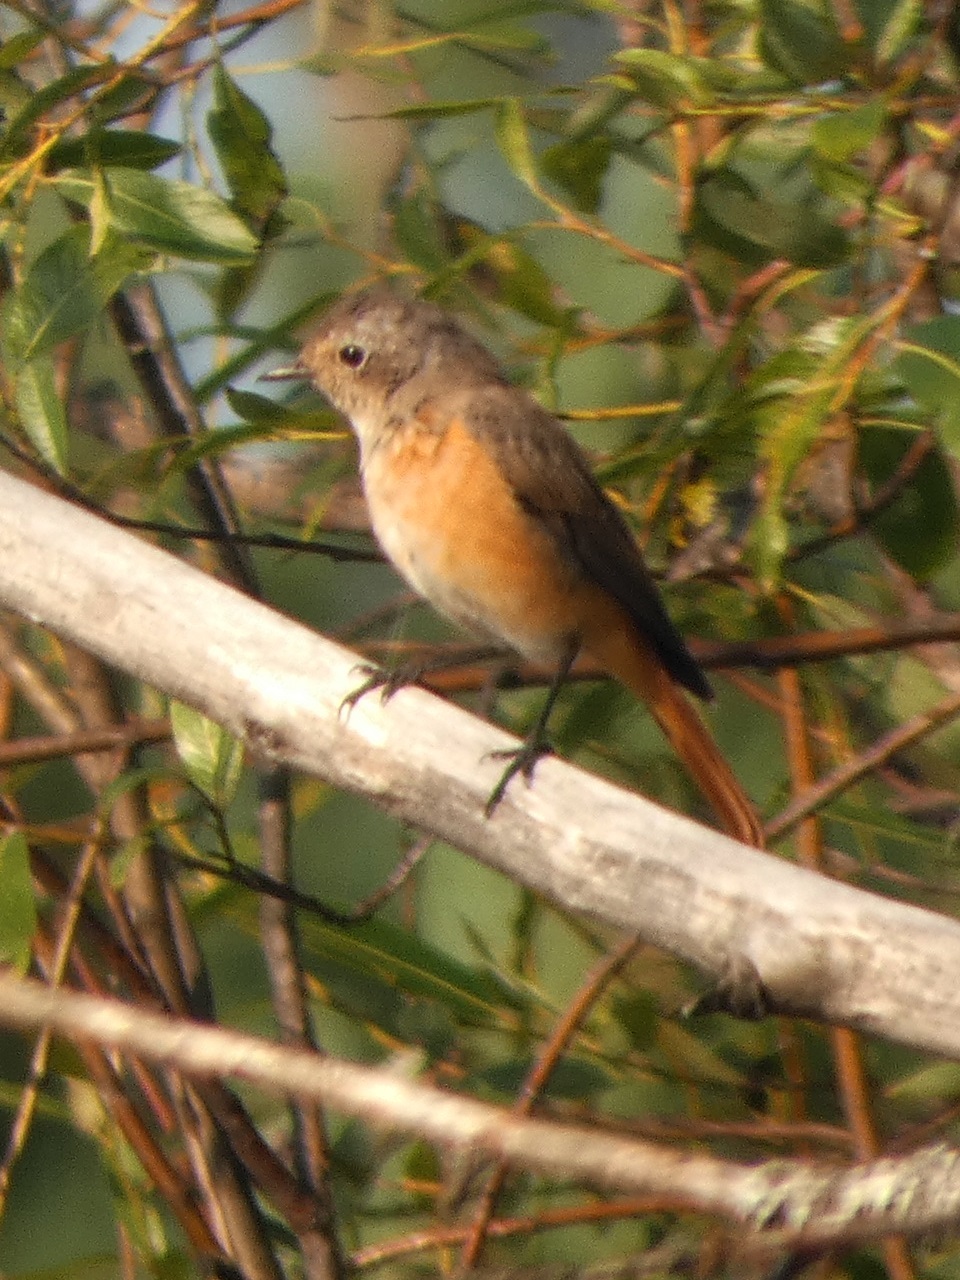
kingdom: Animalia
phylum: Chordata
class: Aves
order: Passeriformes
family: Muscicapidae
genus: Phoenicurus
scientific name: Phoenicurus phoenicurus
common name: Common redstart
